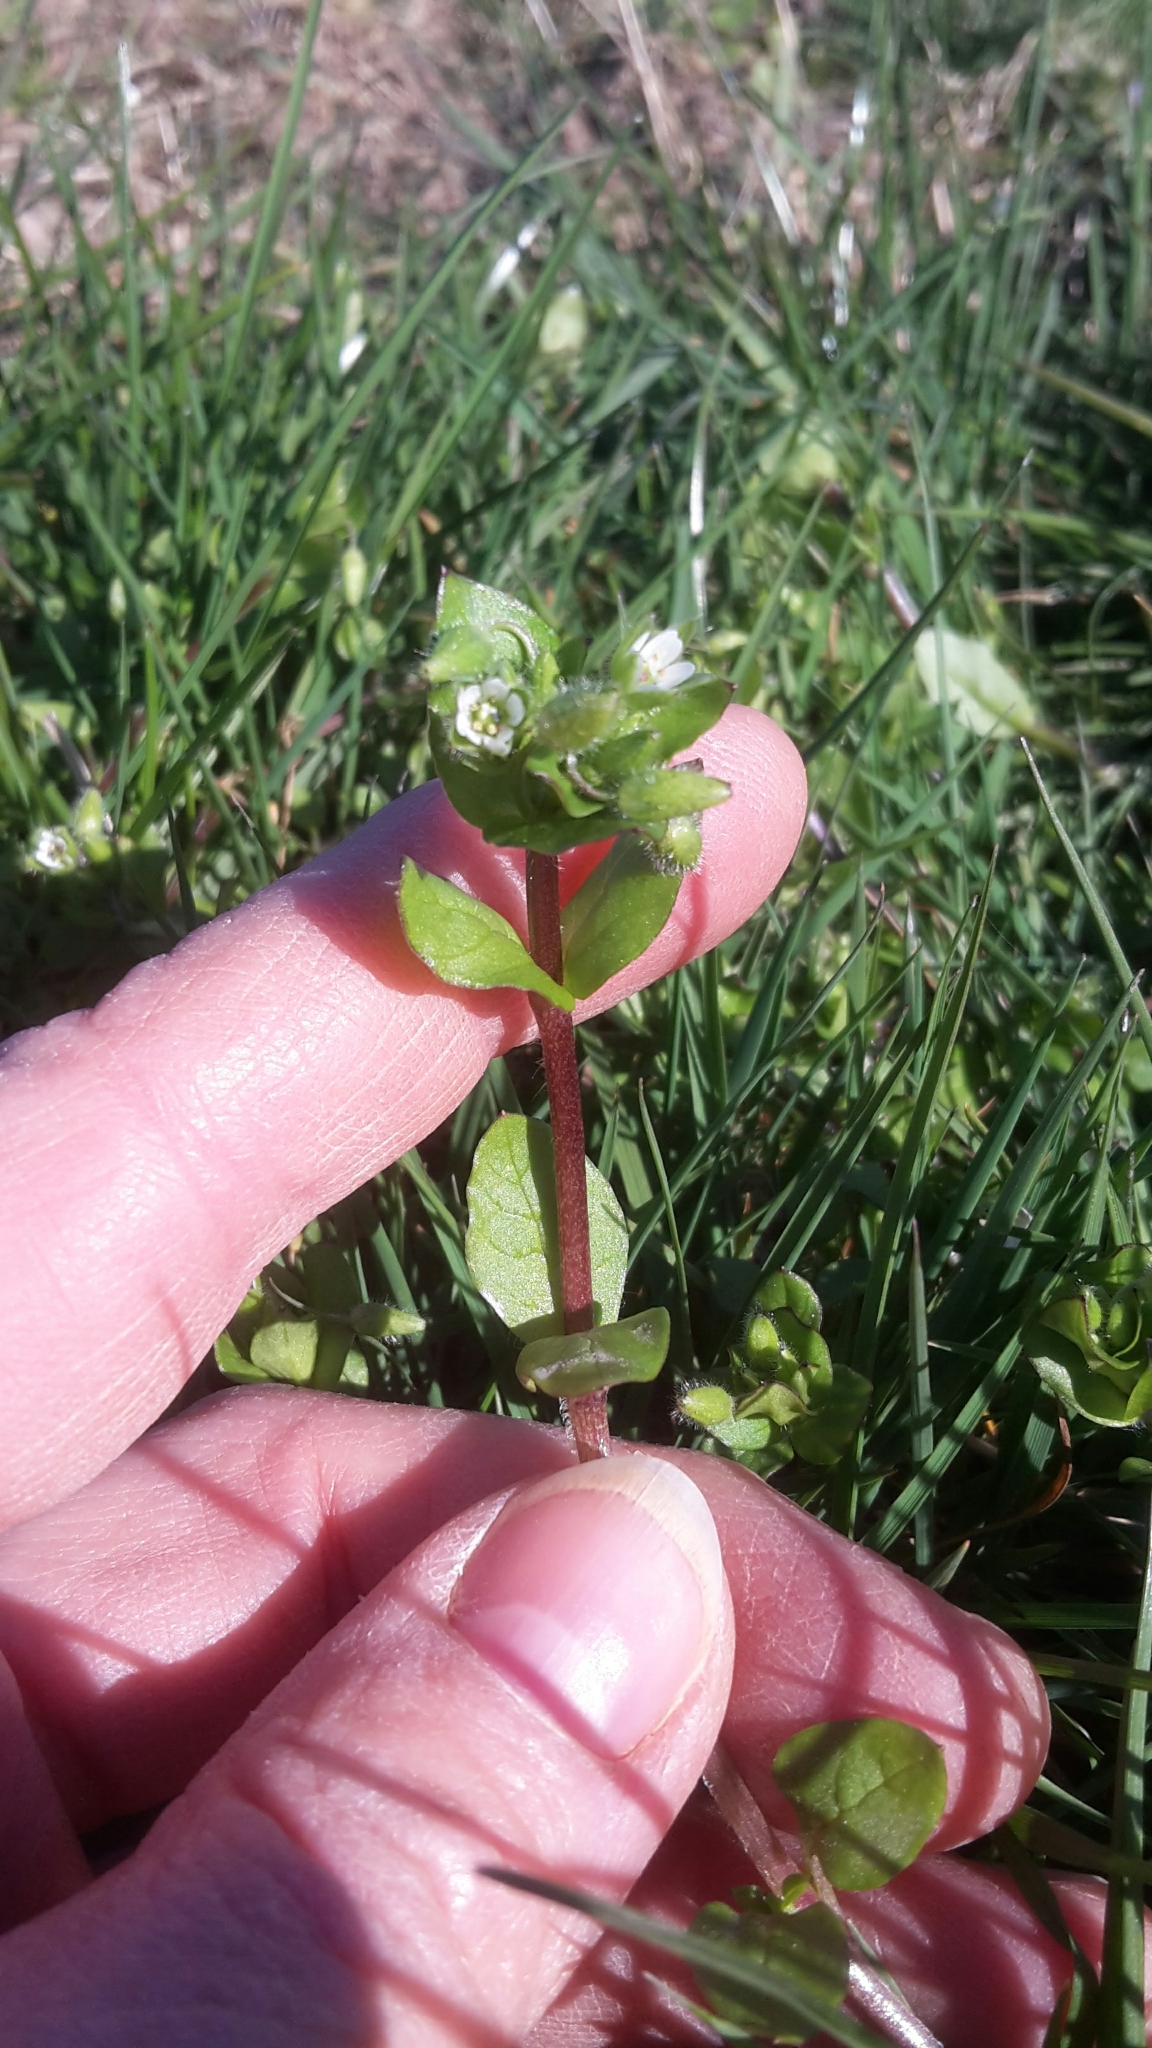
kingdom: Plantae
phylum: Tracheophyta
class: Magnoliopsida
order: Caryophyllales
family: Caryophyllaceae
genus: Stellaria
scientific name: Stellaria media
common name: Common chickweed
